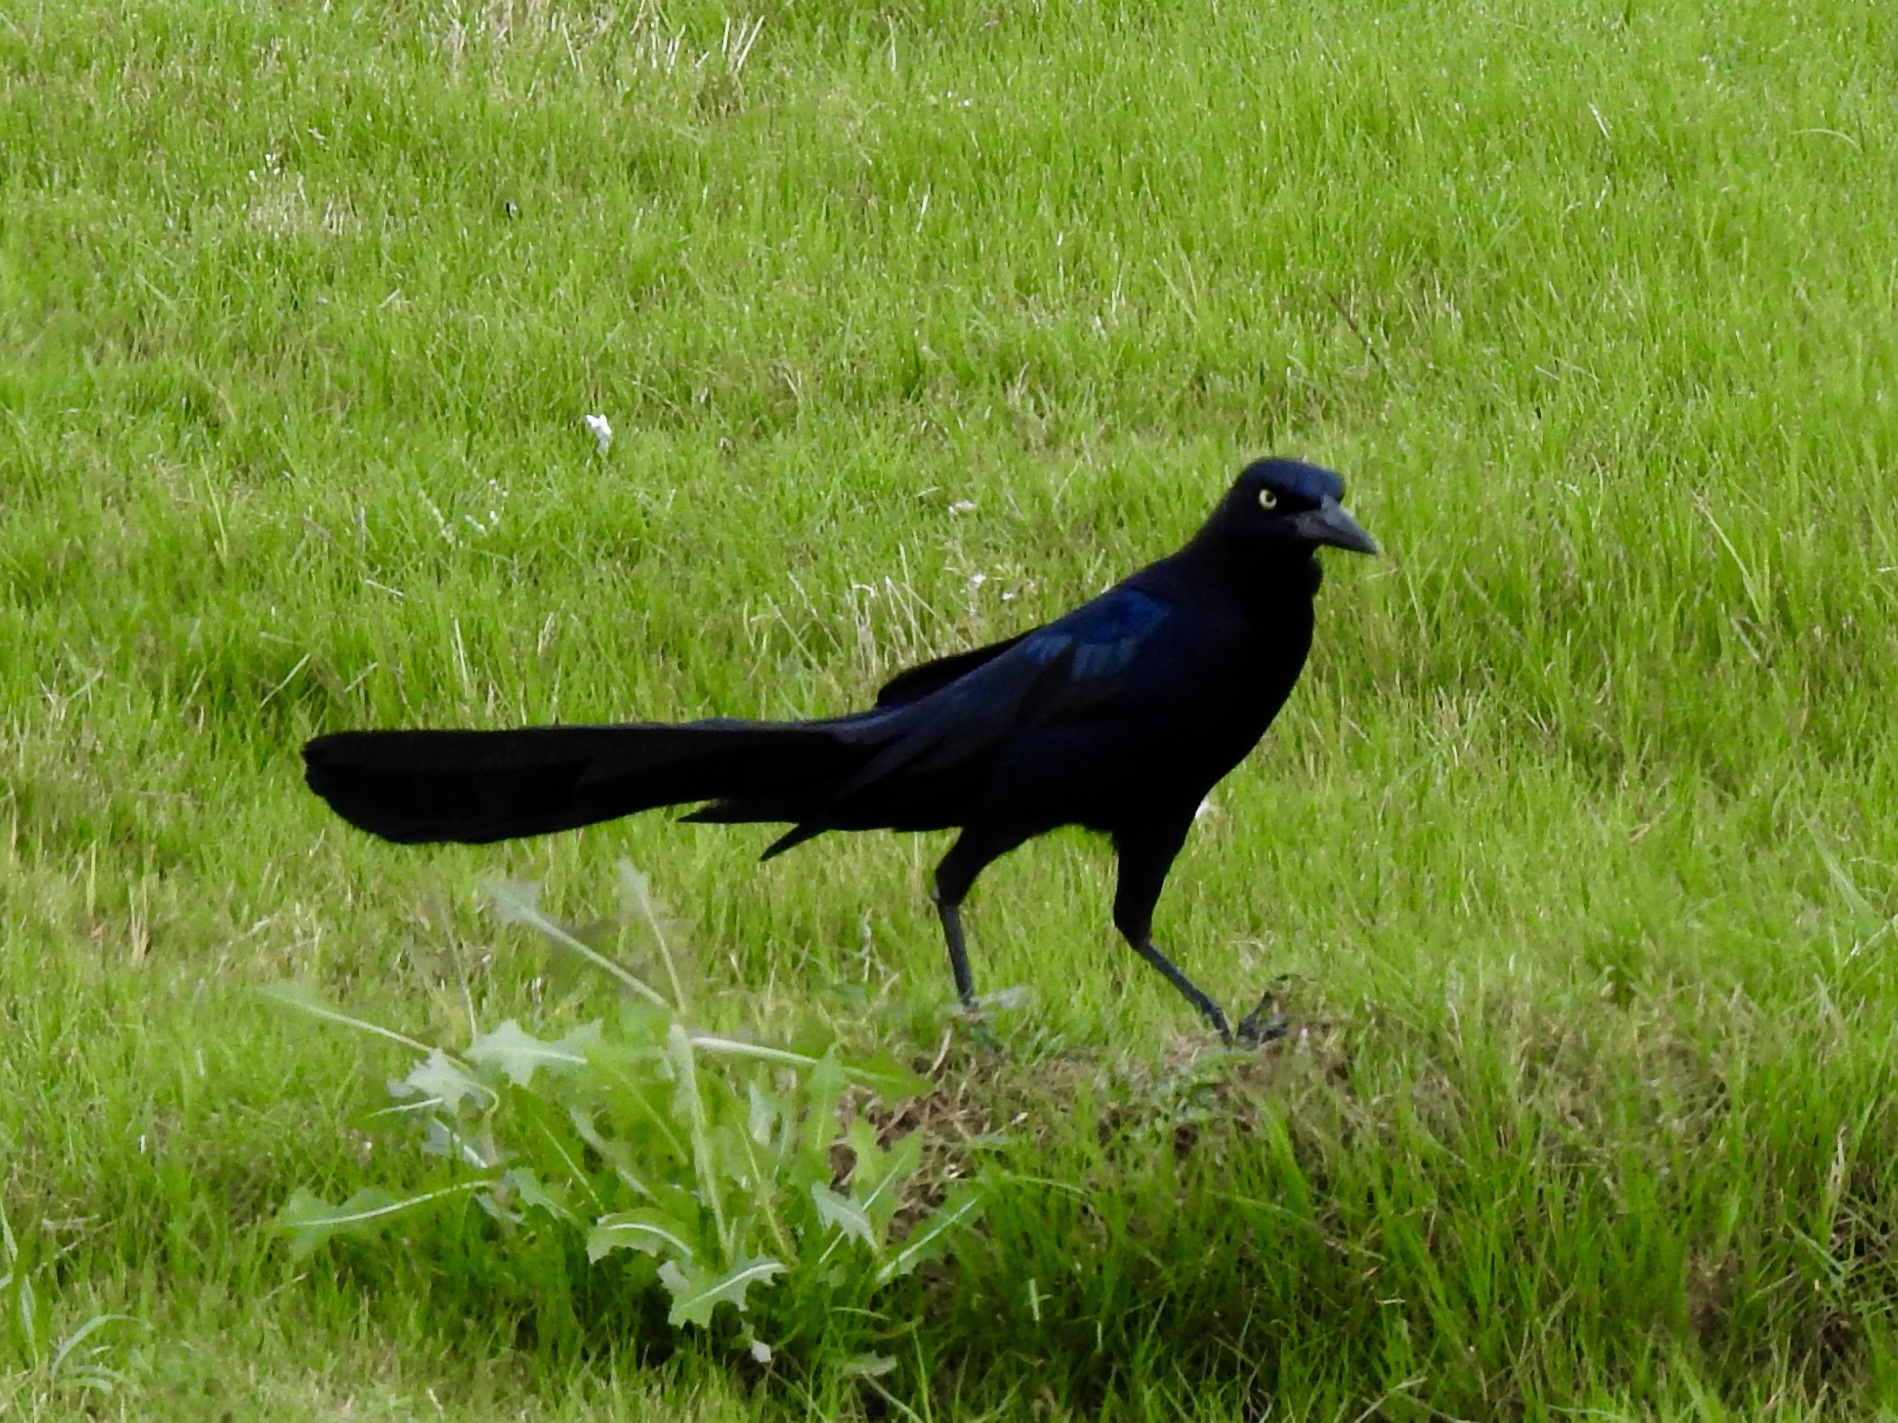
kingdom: Animalia
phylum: Chordata
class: Aves
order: Passeriformes
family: Icteridae
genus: Quiscalus
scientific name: Quiscalus mexicanus
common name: Great-tailed grackle
